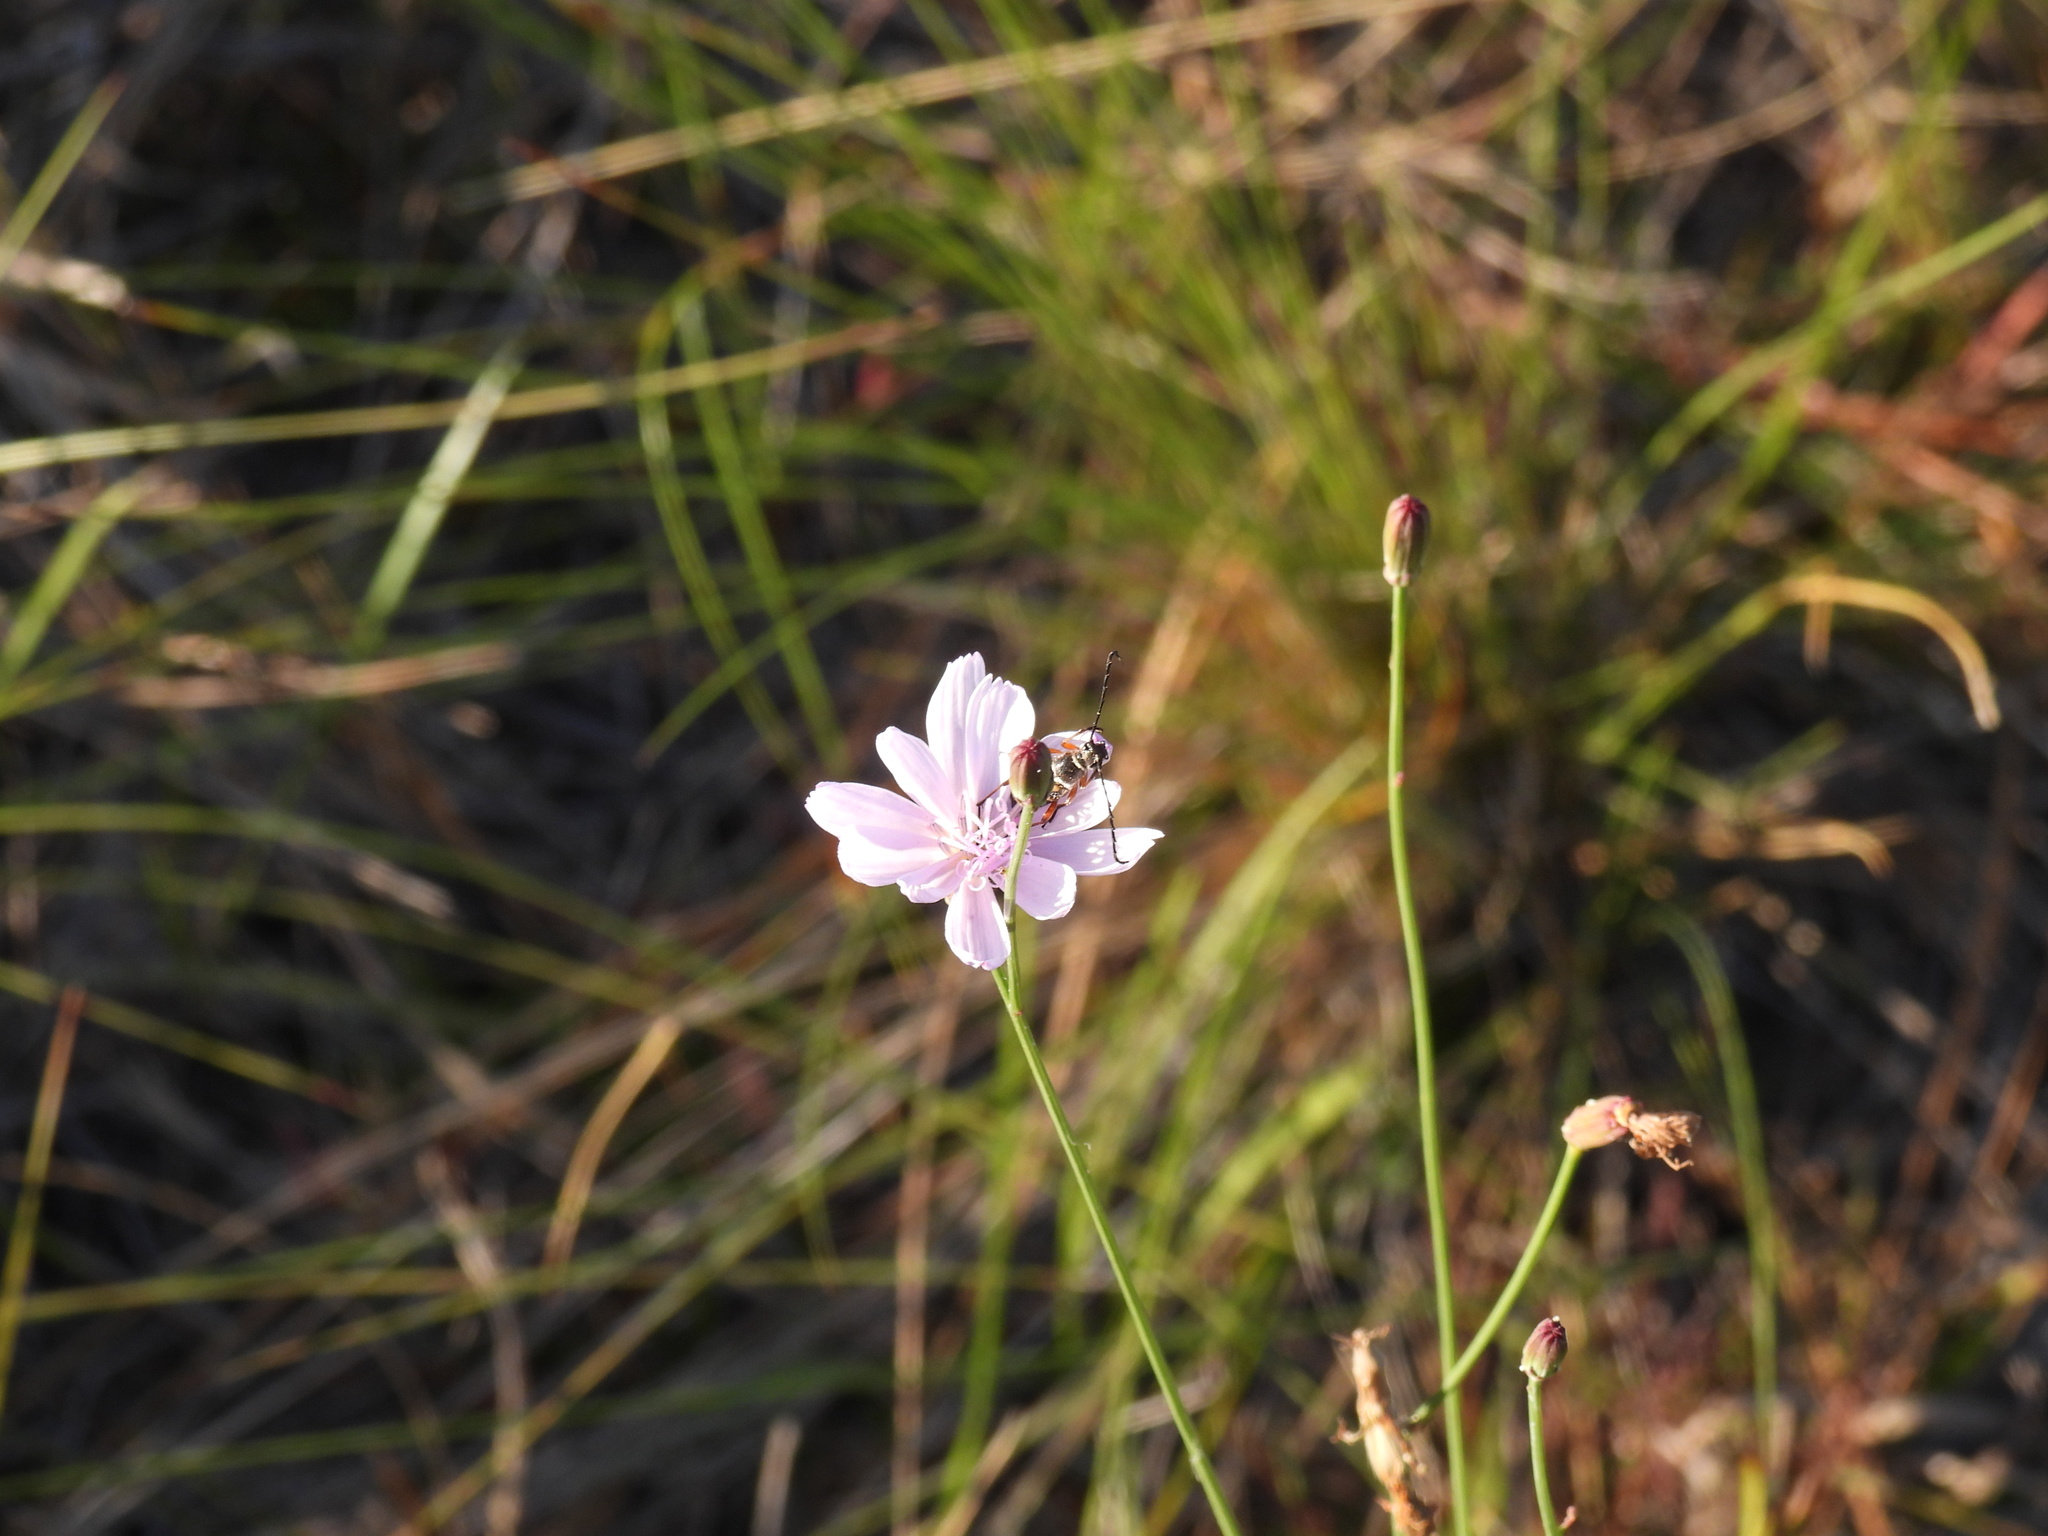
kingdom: Plantae
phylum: Tracheophyta
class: Magnoliopsida
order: Asterales
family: Asteraceae
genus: Lygodesmia
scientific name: Lygodesmia aphylla
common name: Rose-rush
